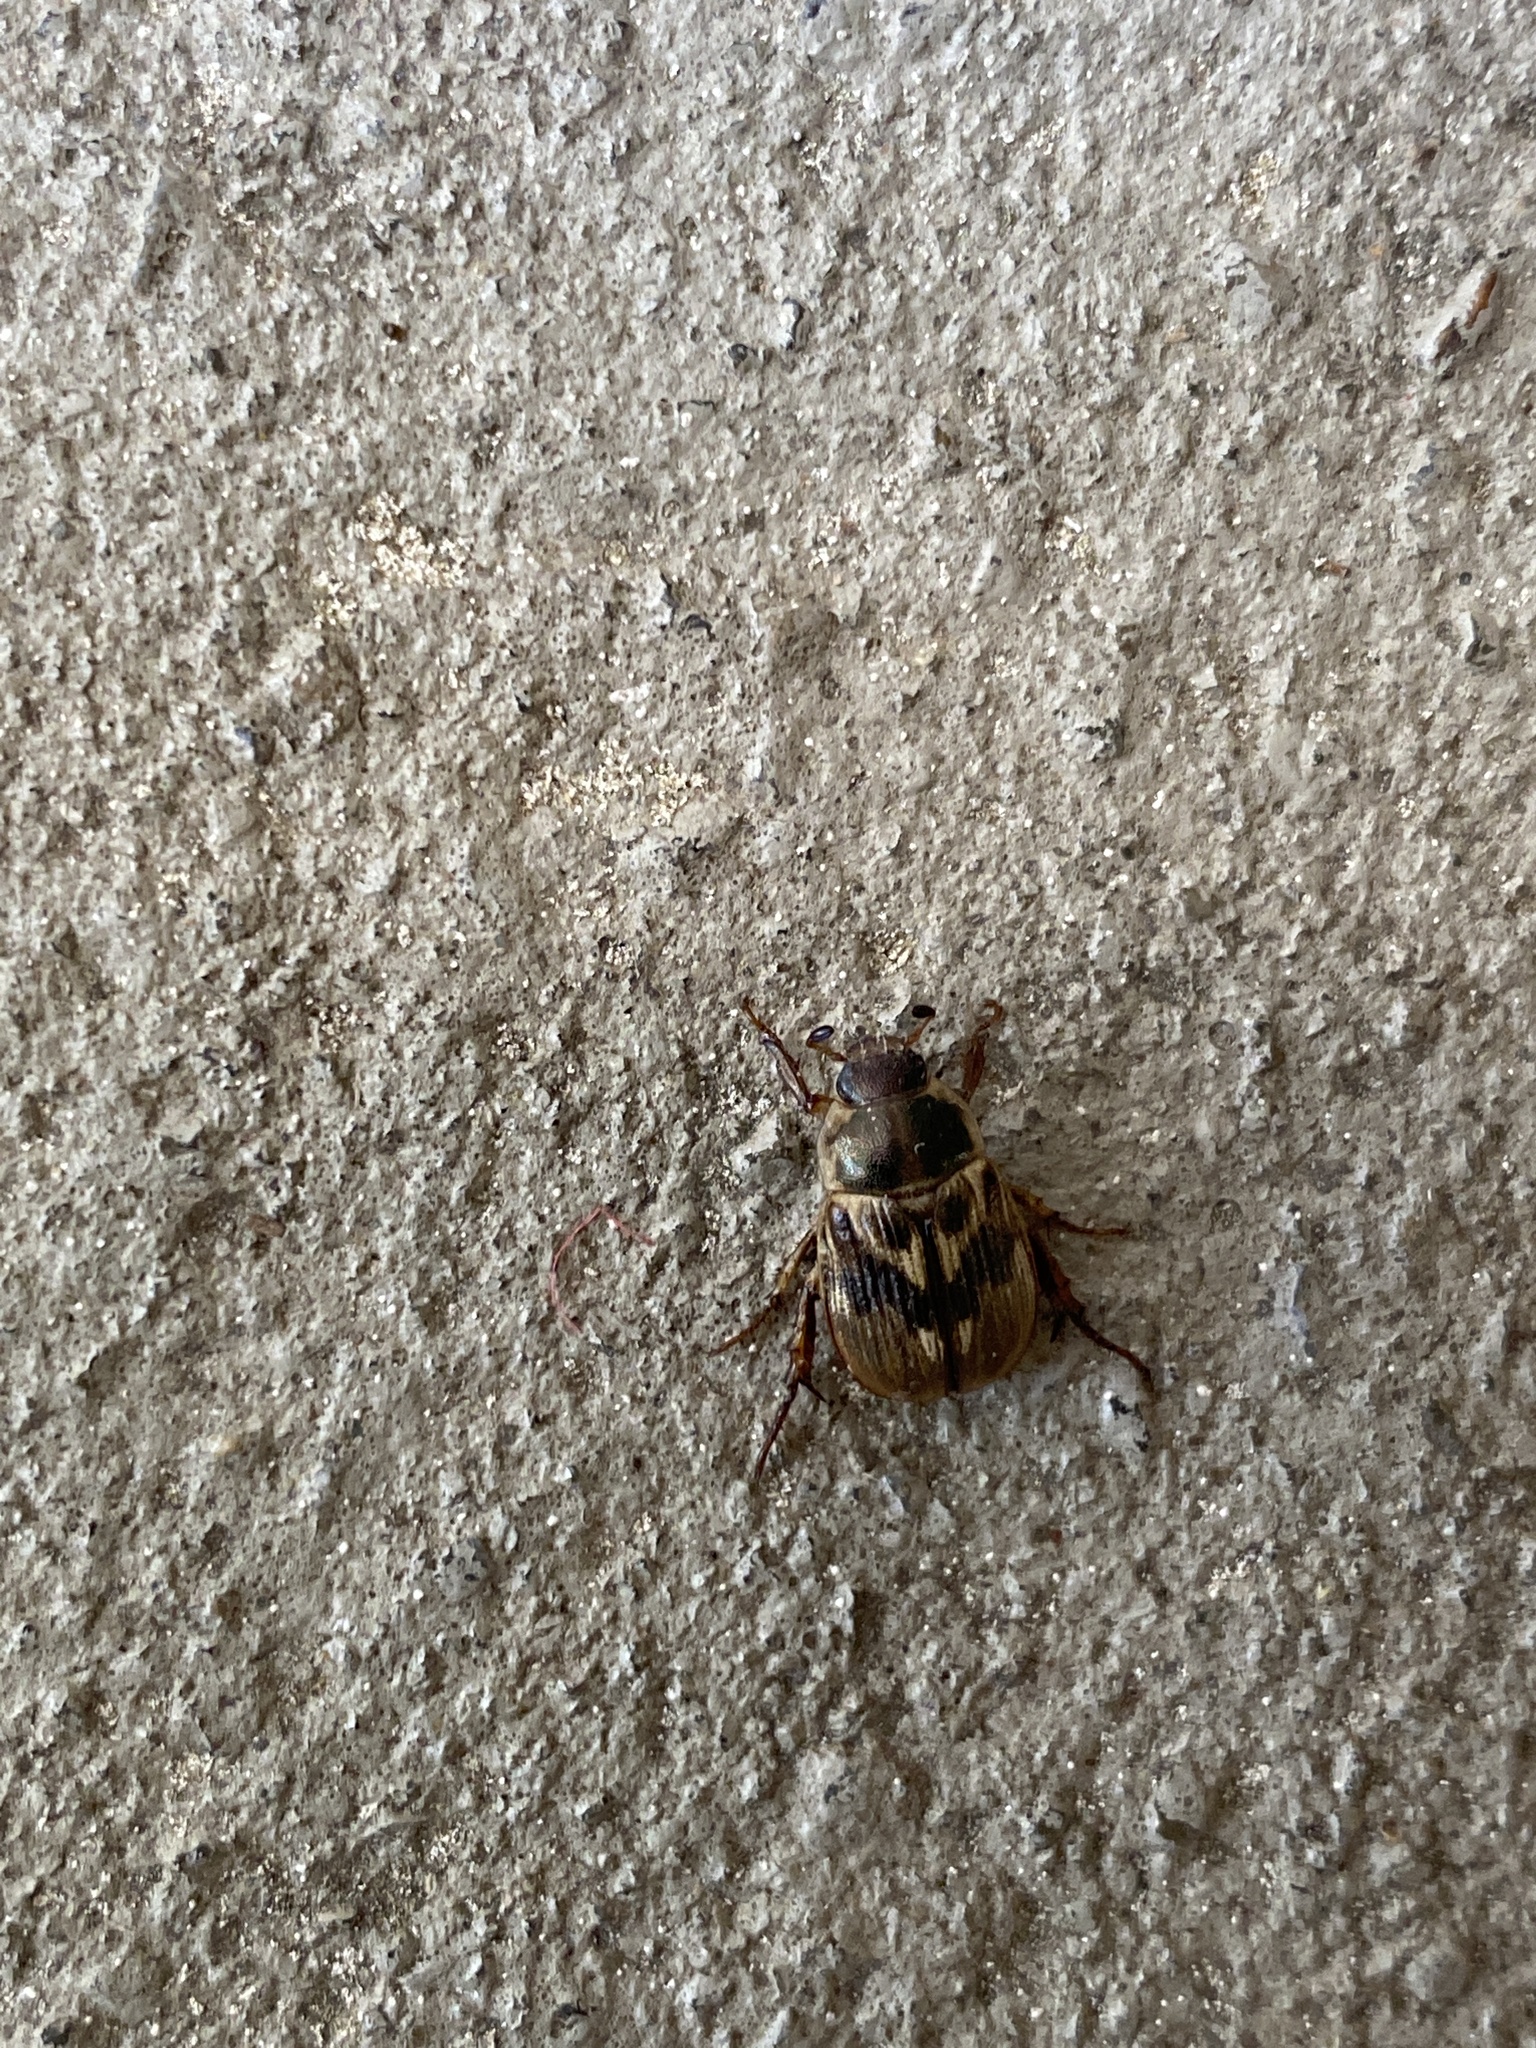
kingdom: Animalia
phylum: Arthropoda
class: Insecta
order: Coleoptera
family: Scarabaeidae
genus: Exomala
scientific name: Exomala orientalis
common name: Oriental beetle
